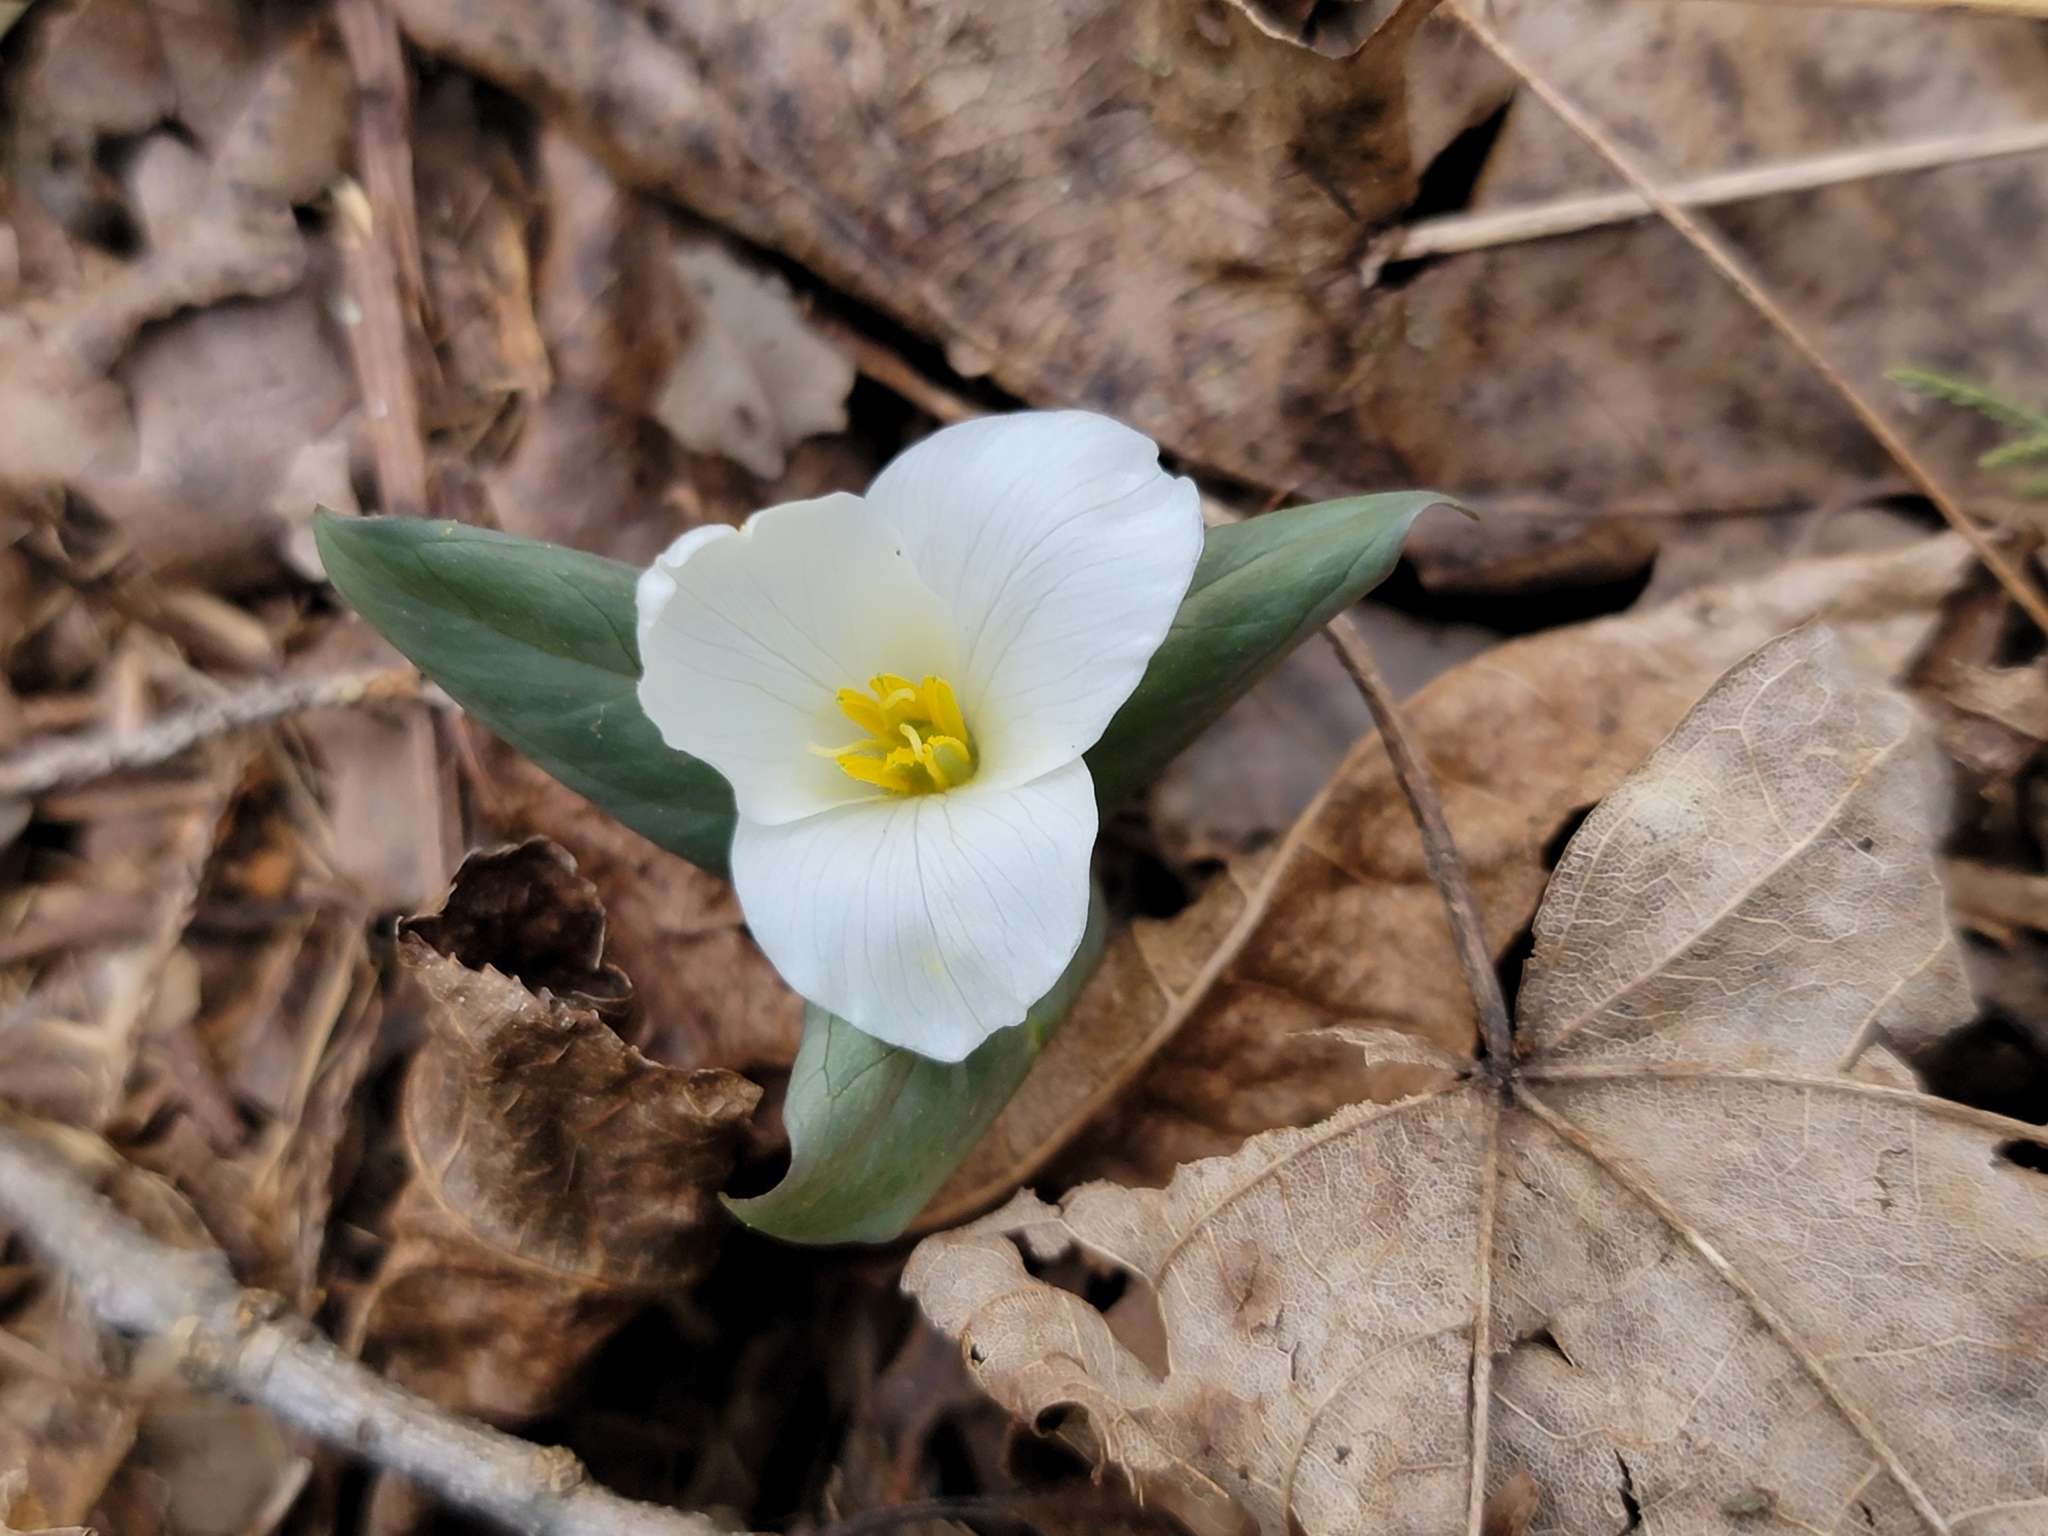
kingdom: Plantae
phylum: Tracheophyta
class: Liliopsida
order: Liliales
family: Melanthiaceae
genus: Trillium
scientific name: Trillium nivale
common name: Dwarf white trillium
